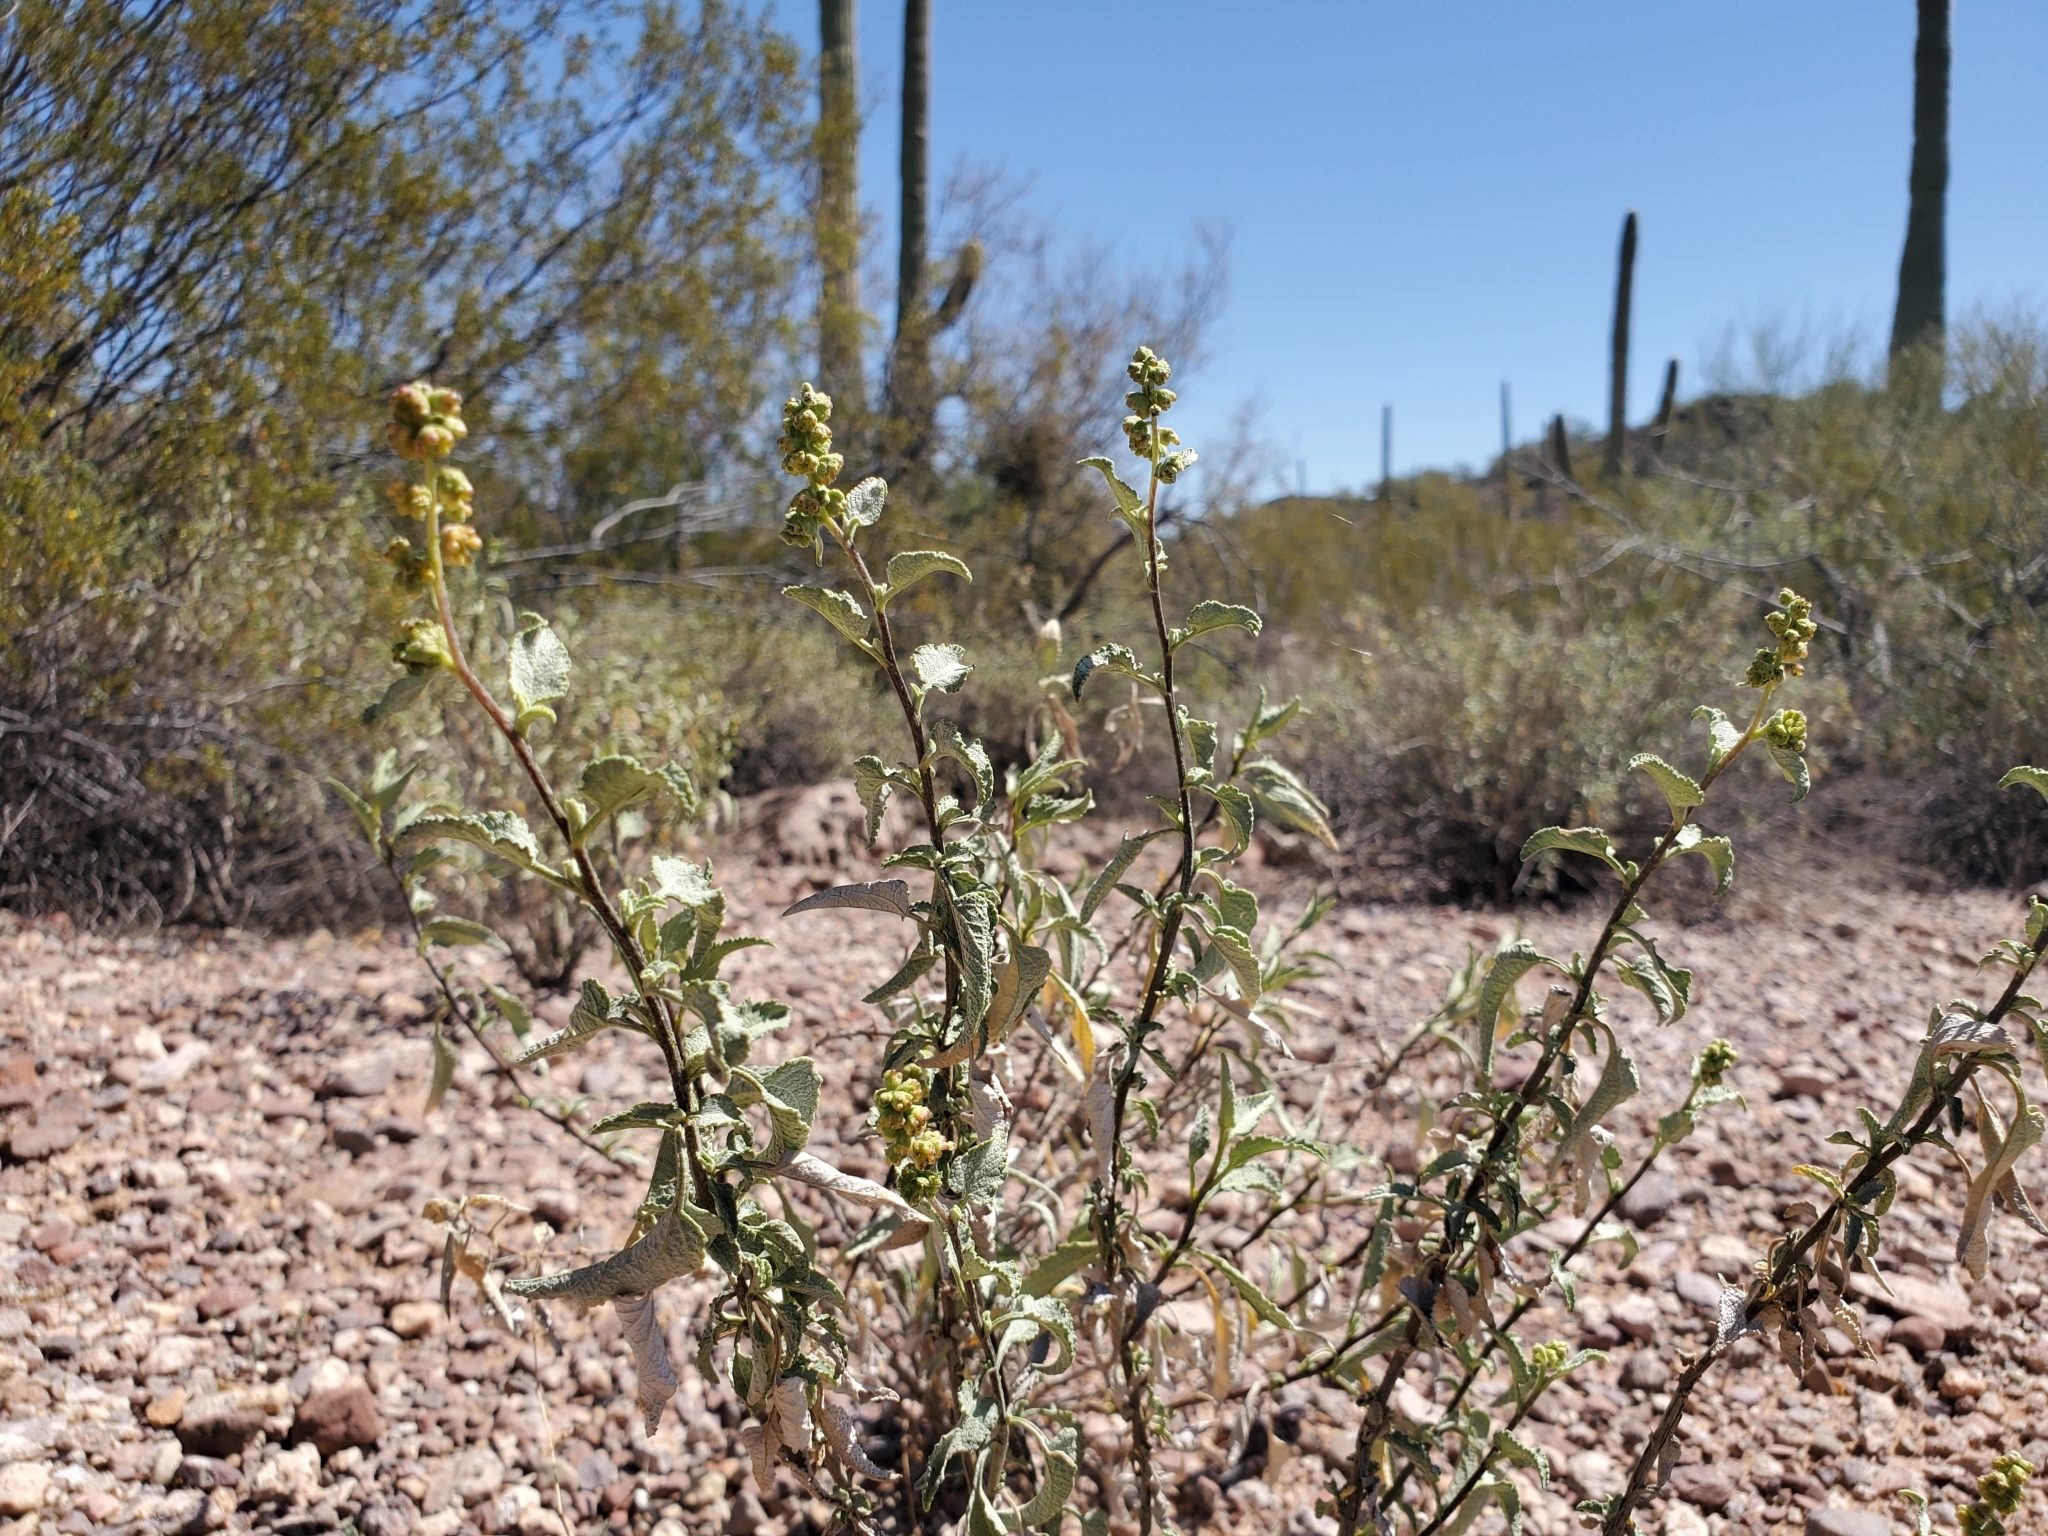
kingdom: Plantae
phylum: Tracheophyta
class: Magnoliopsida
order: Asterales
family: Asteraceae
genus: Ambrosia
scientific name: Ambrosia deltoidea
